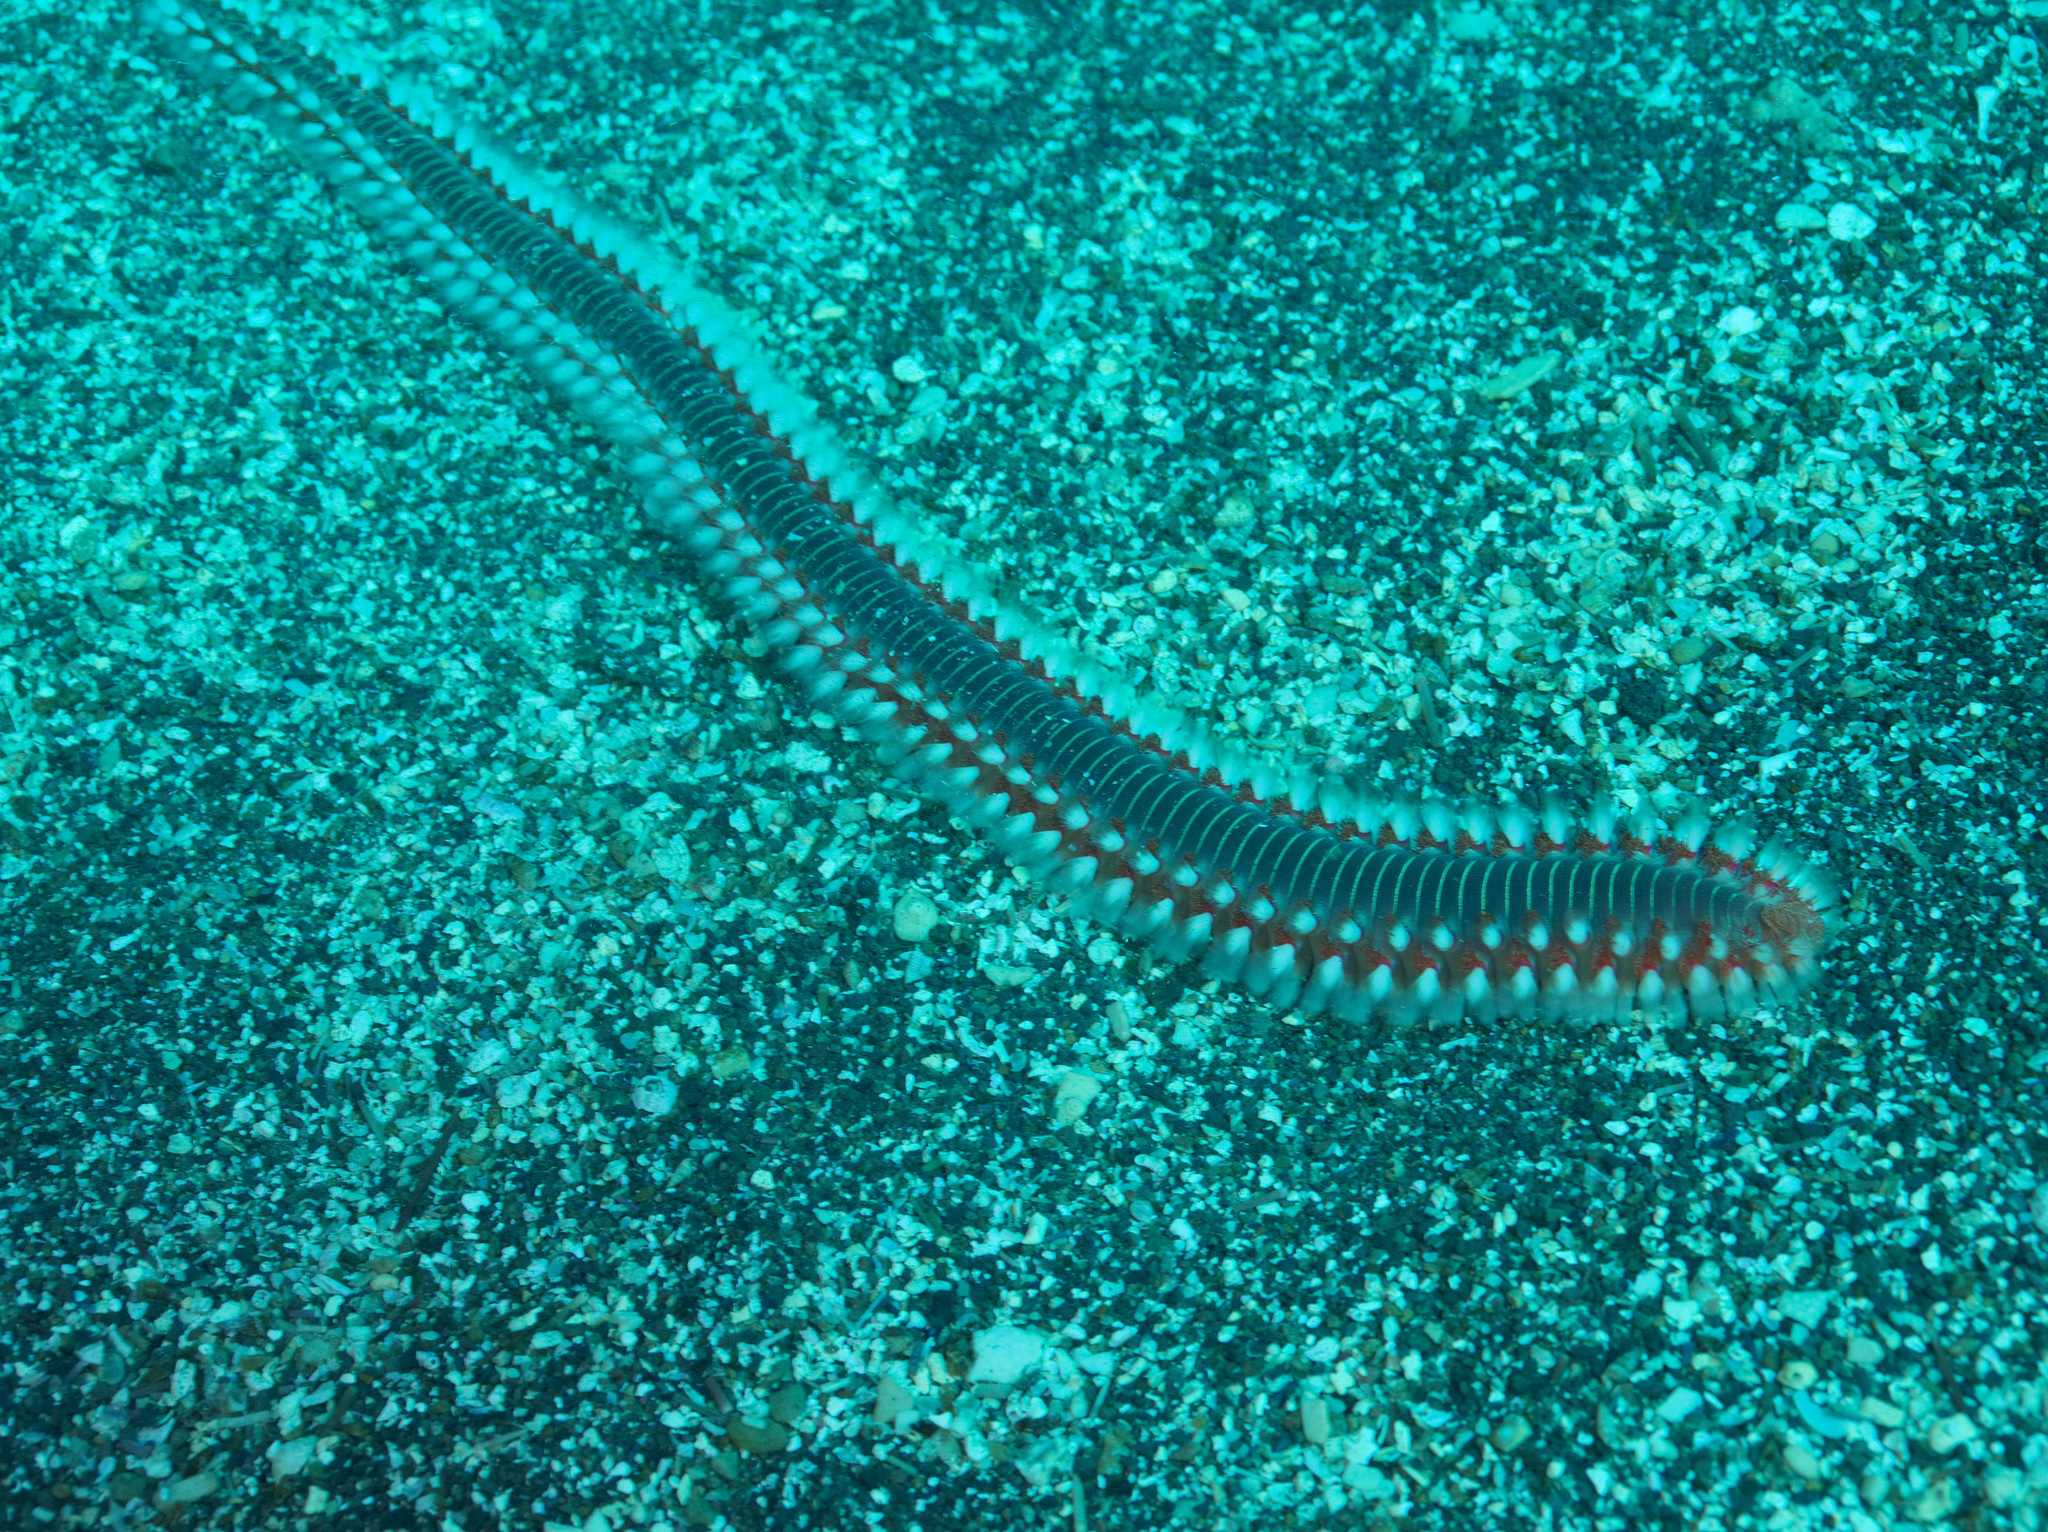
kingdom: Animalia
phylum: Annelida
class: Polychaeta
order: Amphinomida
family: Amphinomidae
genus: Hermodice
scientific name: Hermodice carunculata
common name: Bearded fireworm
